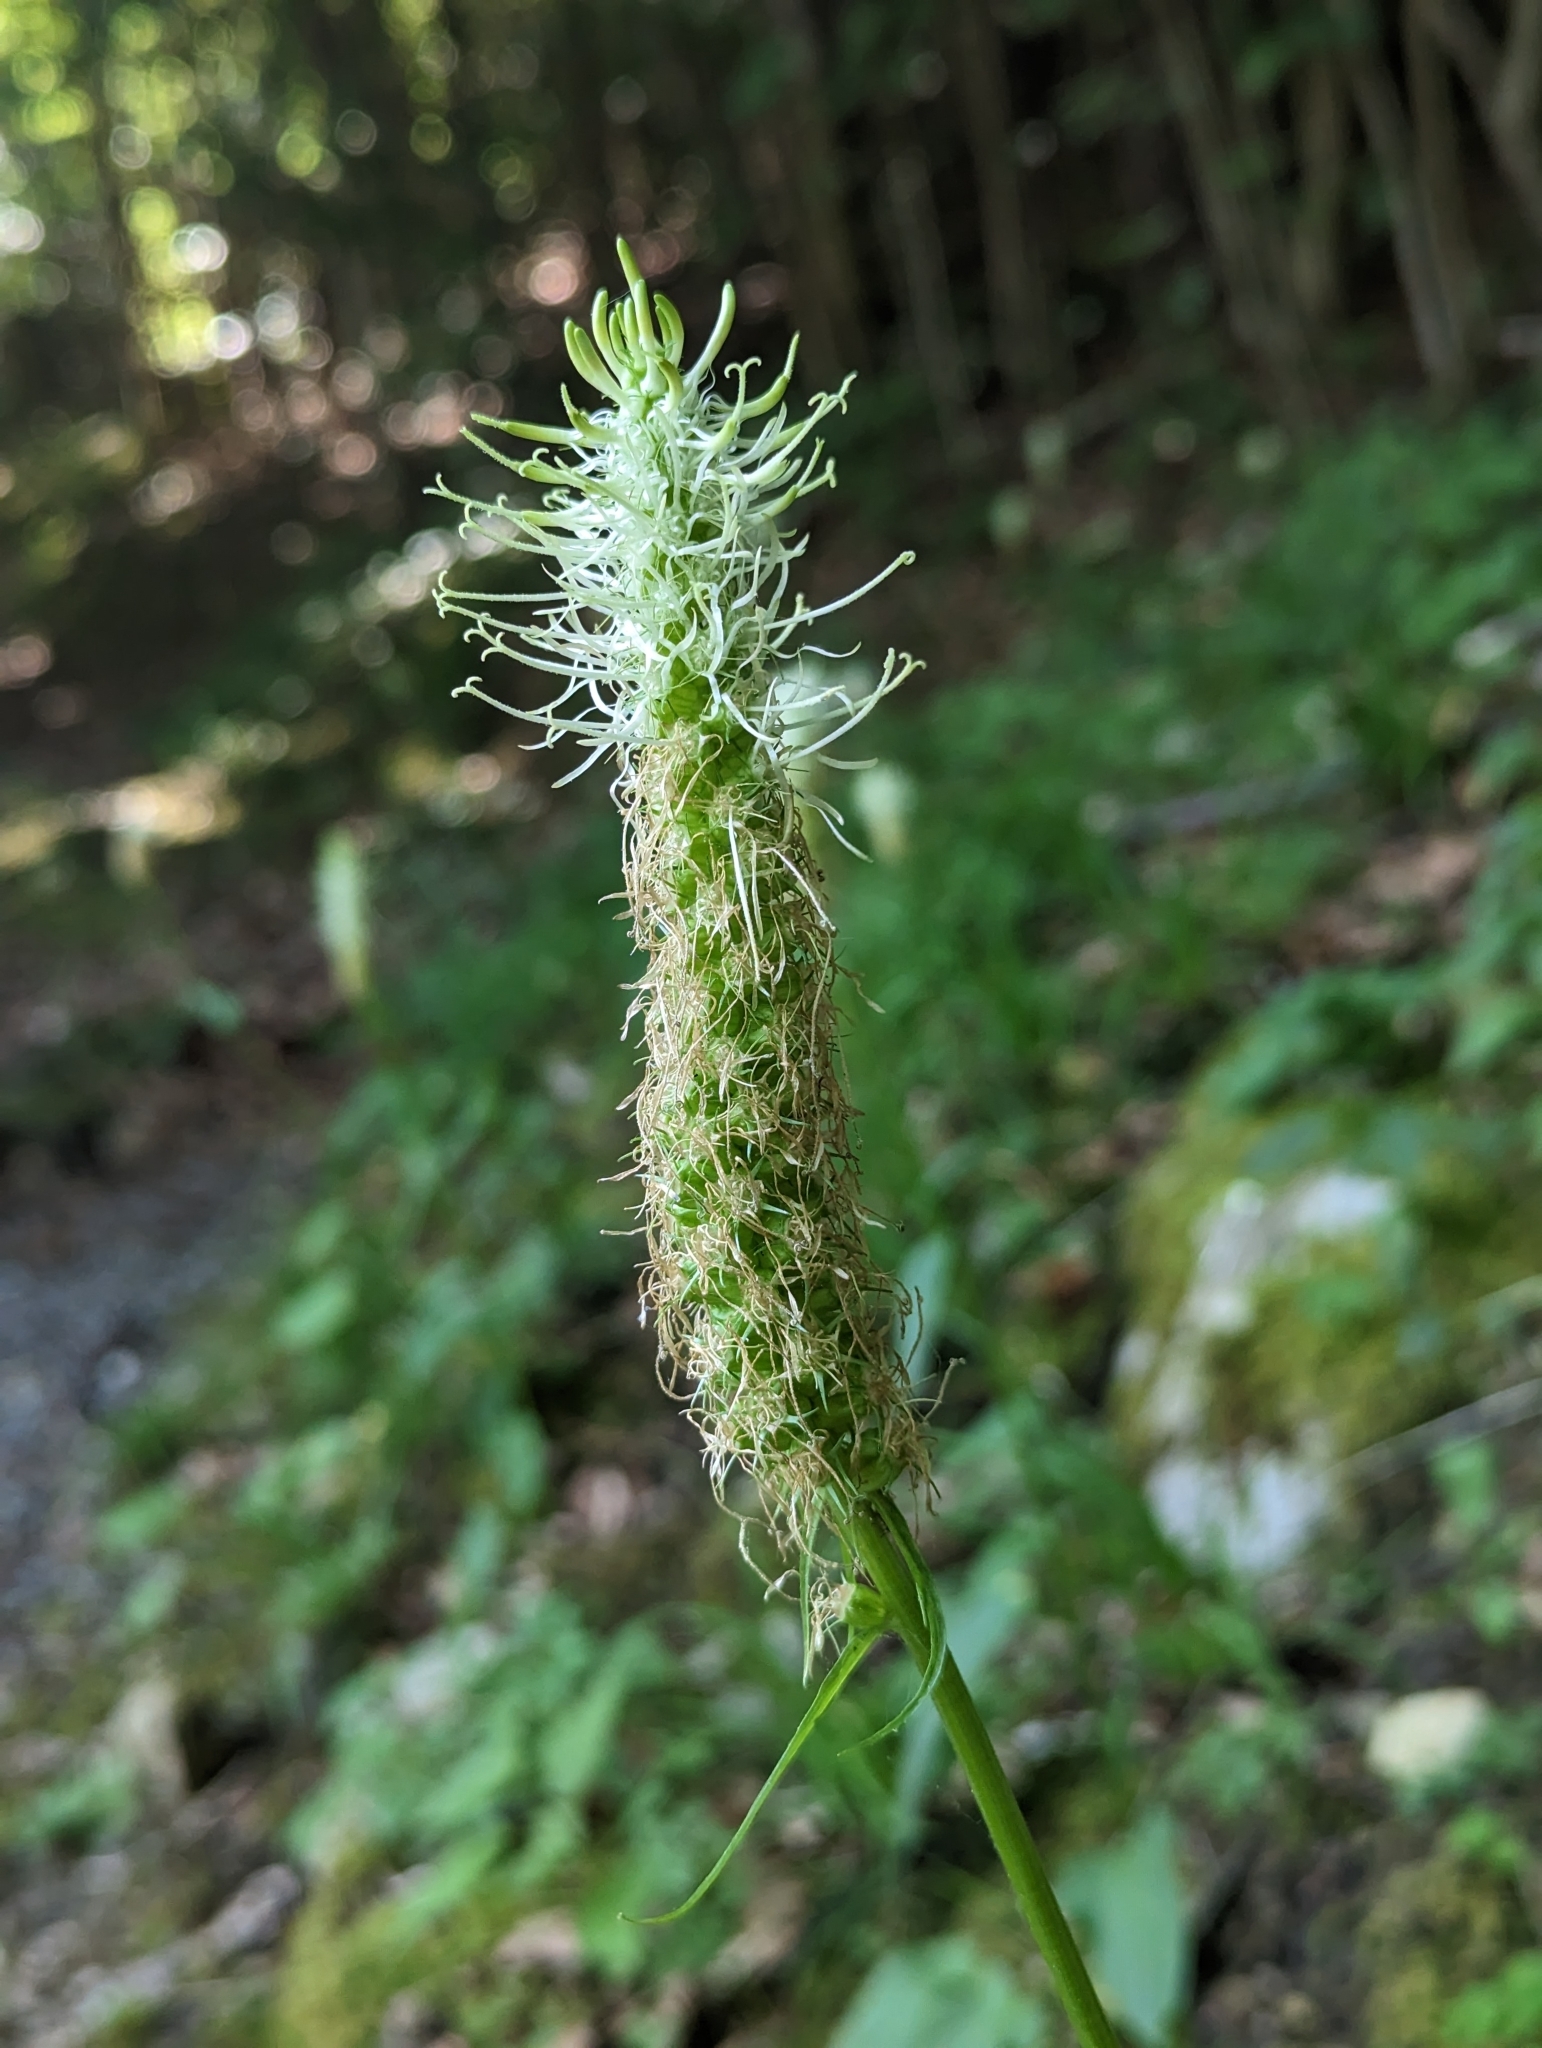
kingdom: Plantae
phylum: Tracheophyta
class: Magnoliopsida
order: Asterales
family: Campanulaceae
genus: Phyteuma
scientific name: Phyteuma spicatum
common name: Spiked rampion
